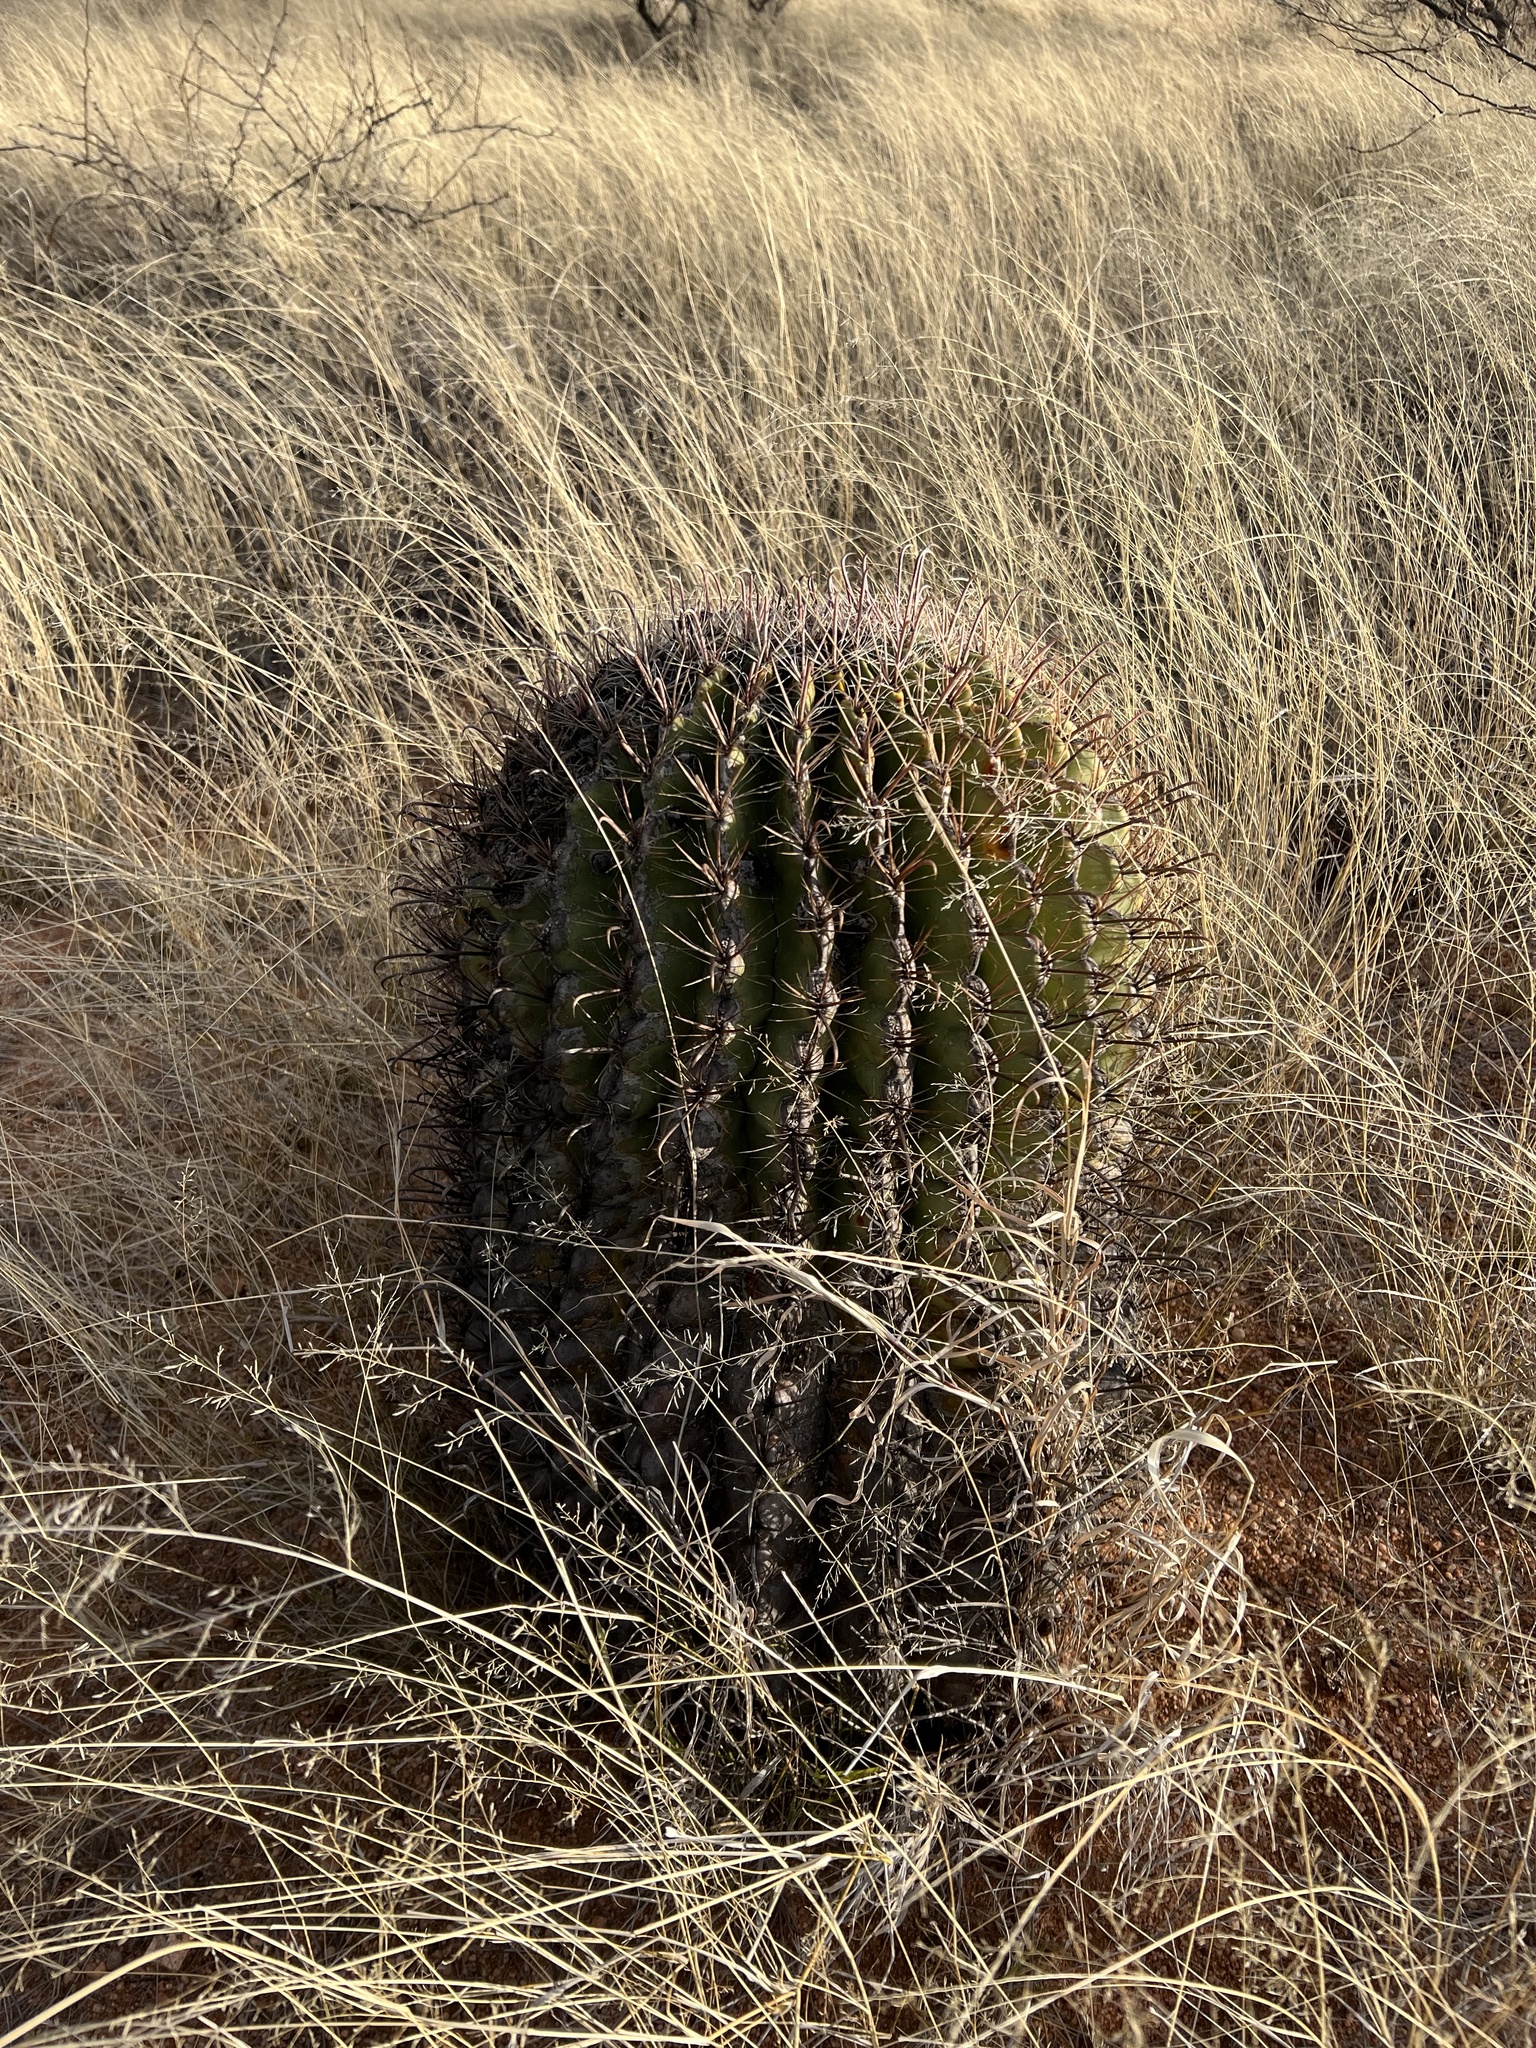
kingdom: Plantae
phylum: Tracheophyta
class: Magnoliopsida
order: Caryophyllales
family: Cactaceae
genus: Ferocactus
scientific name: Ferocactus wislizeni
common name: Candy barrel cactus
